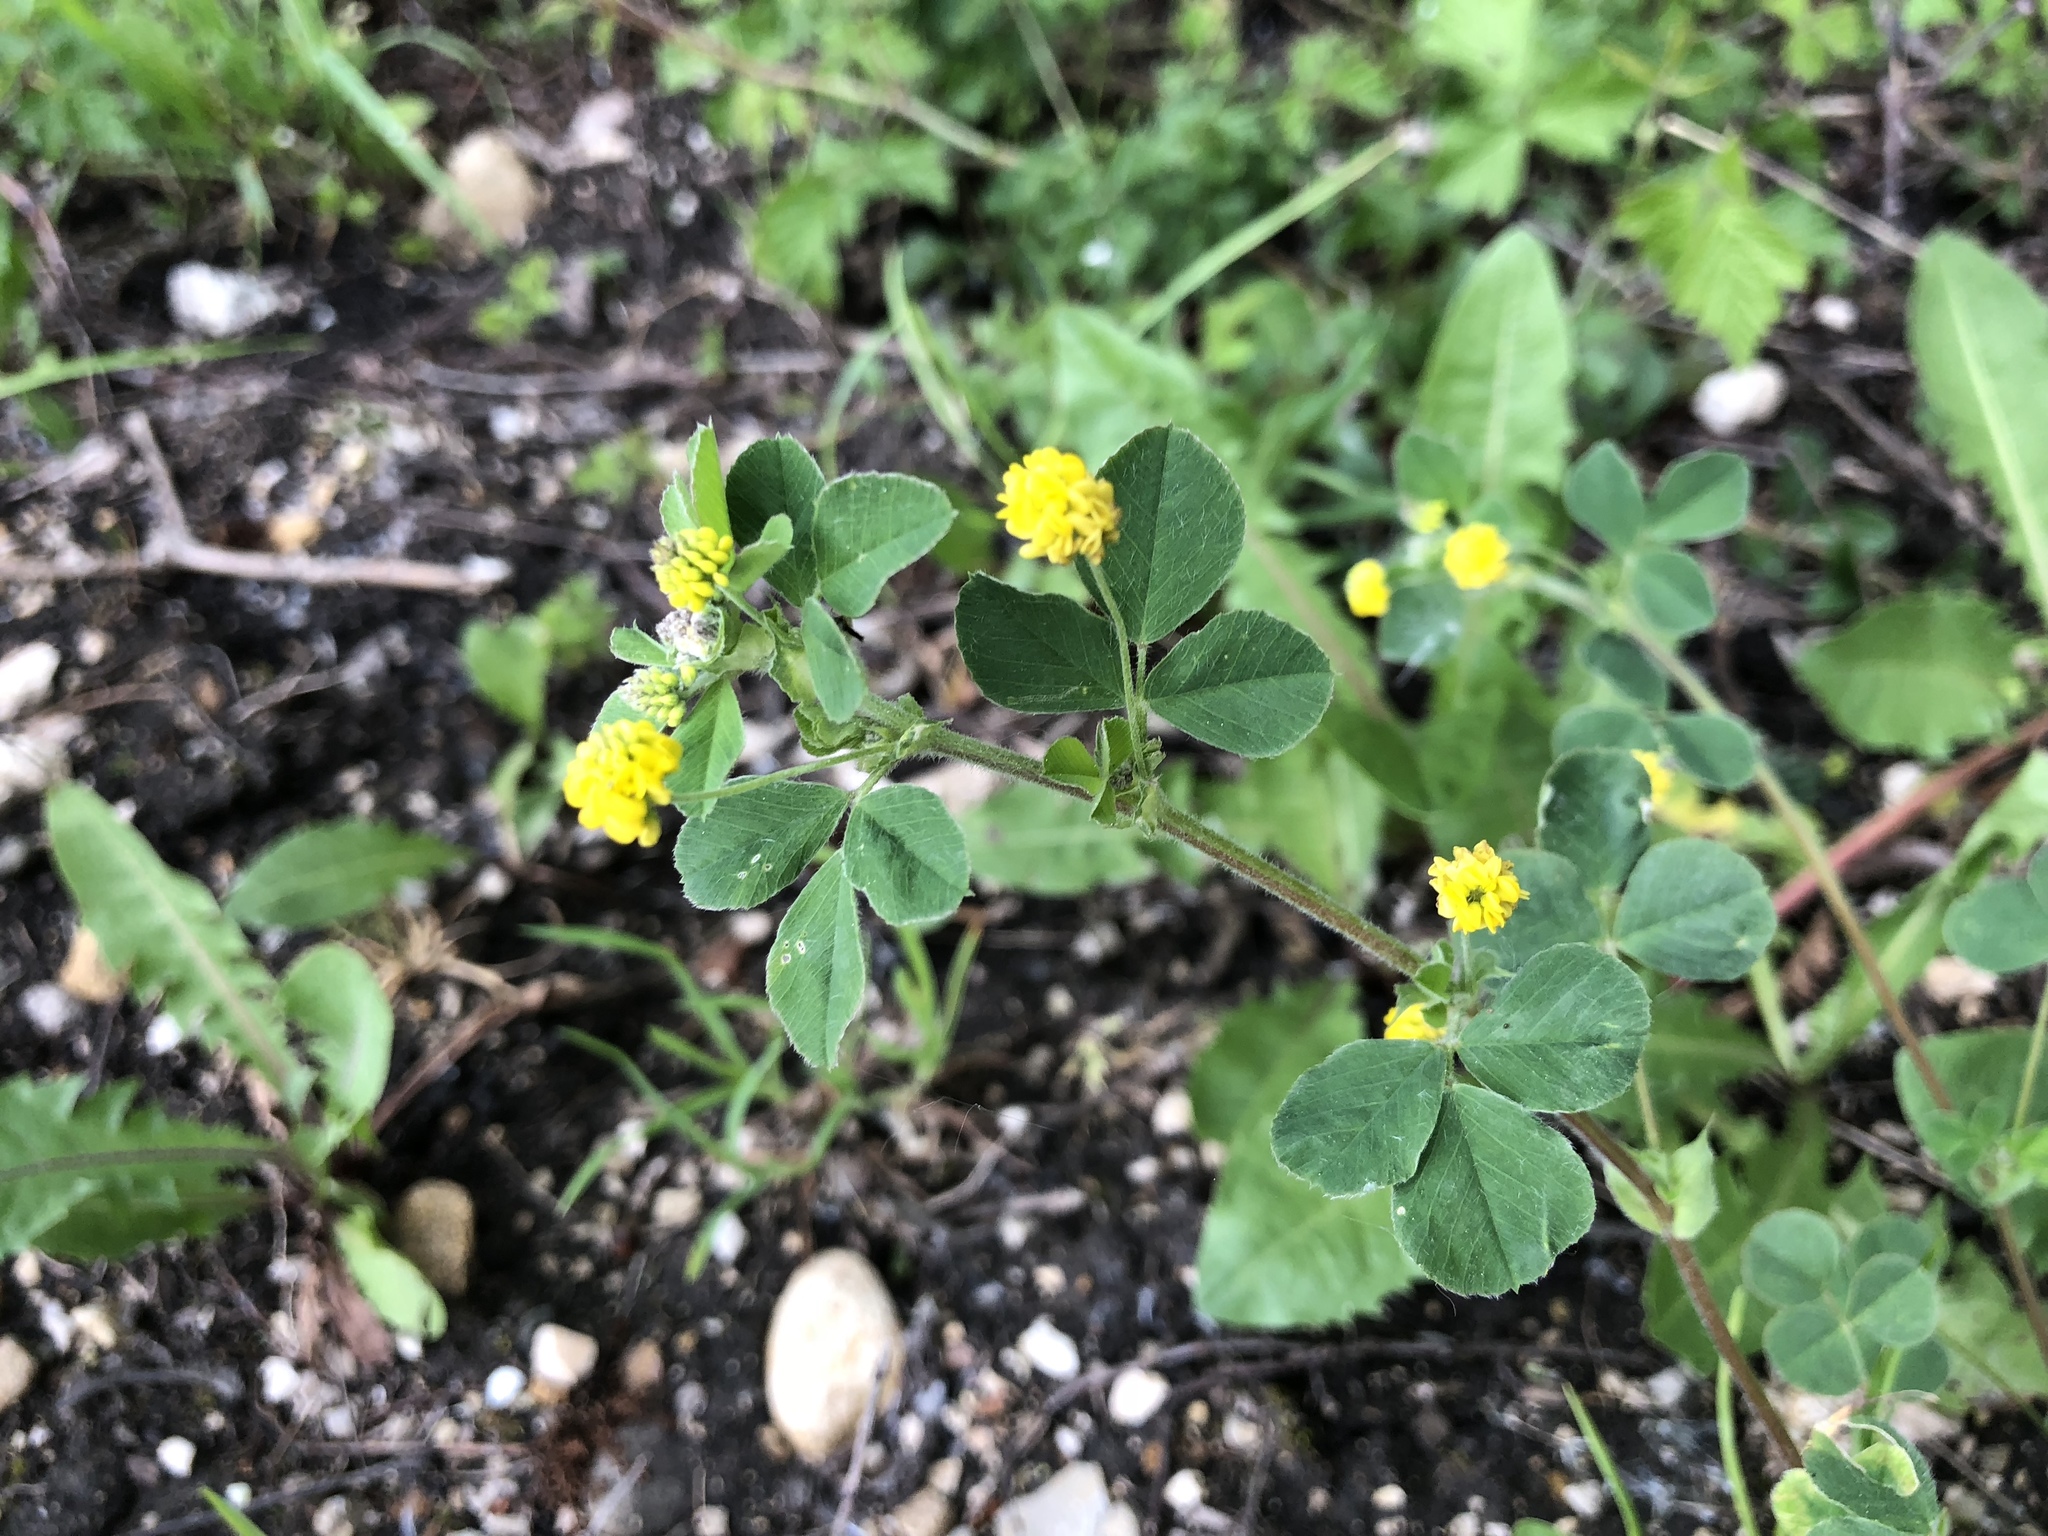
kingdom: Plantae
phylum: Tracheophyta
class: Magnoliopsida
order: Fabales
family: Fabaceae
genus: Medicago
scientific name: Medicago lupulina
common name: Black medick
